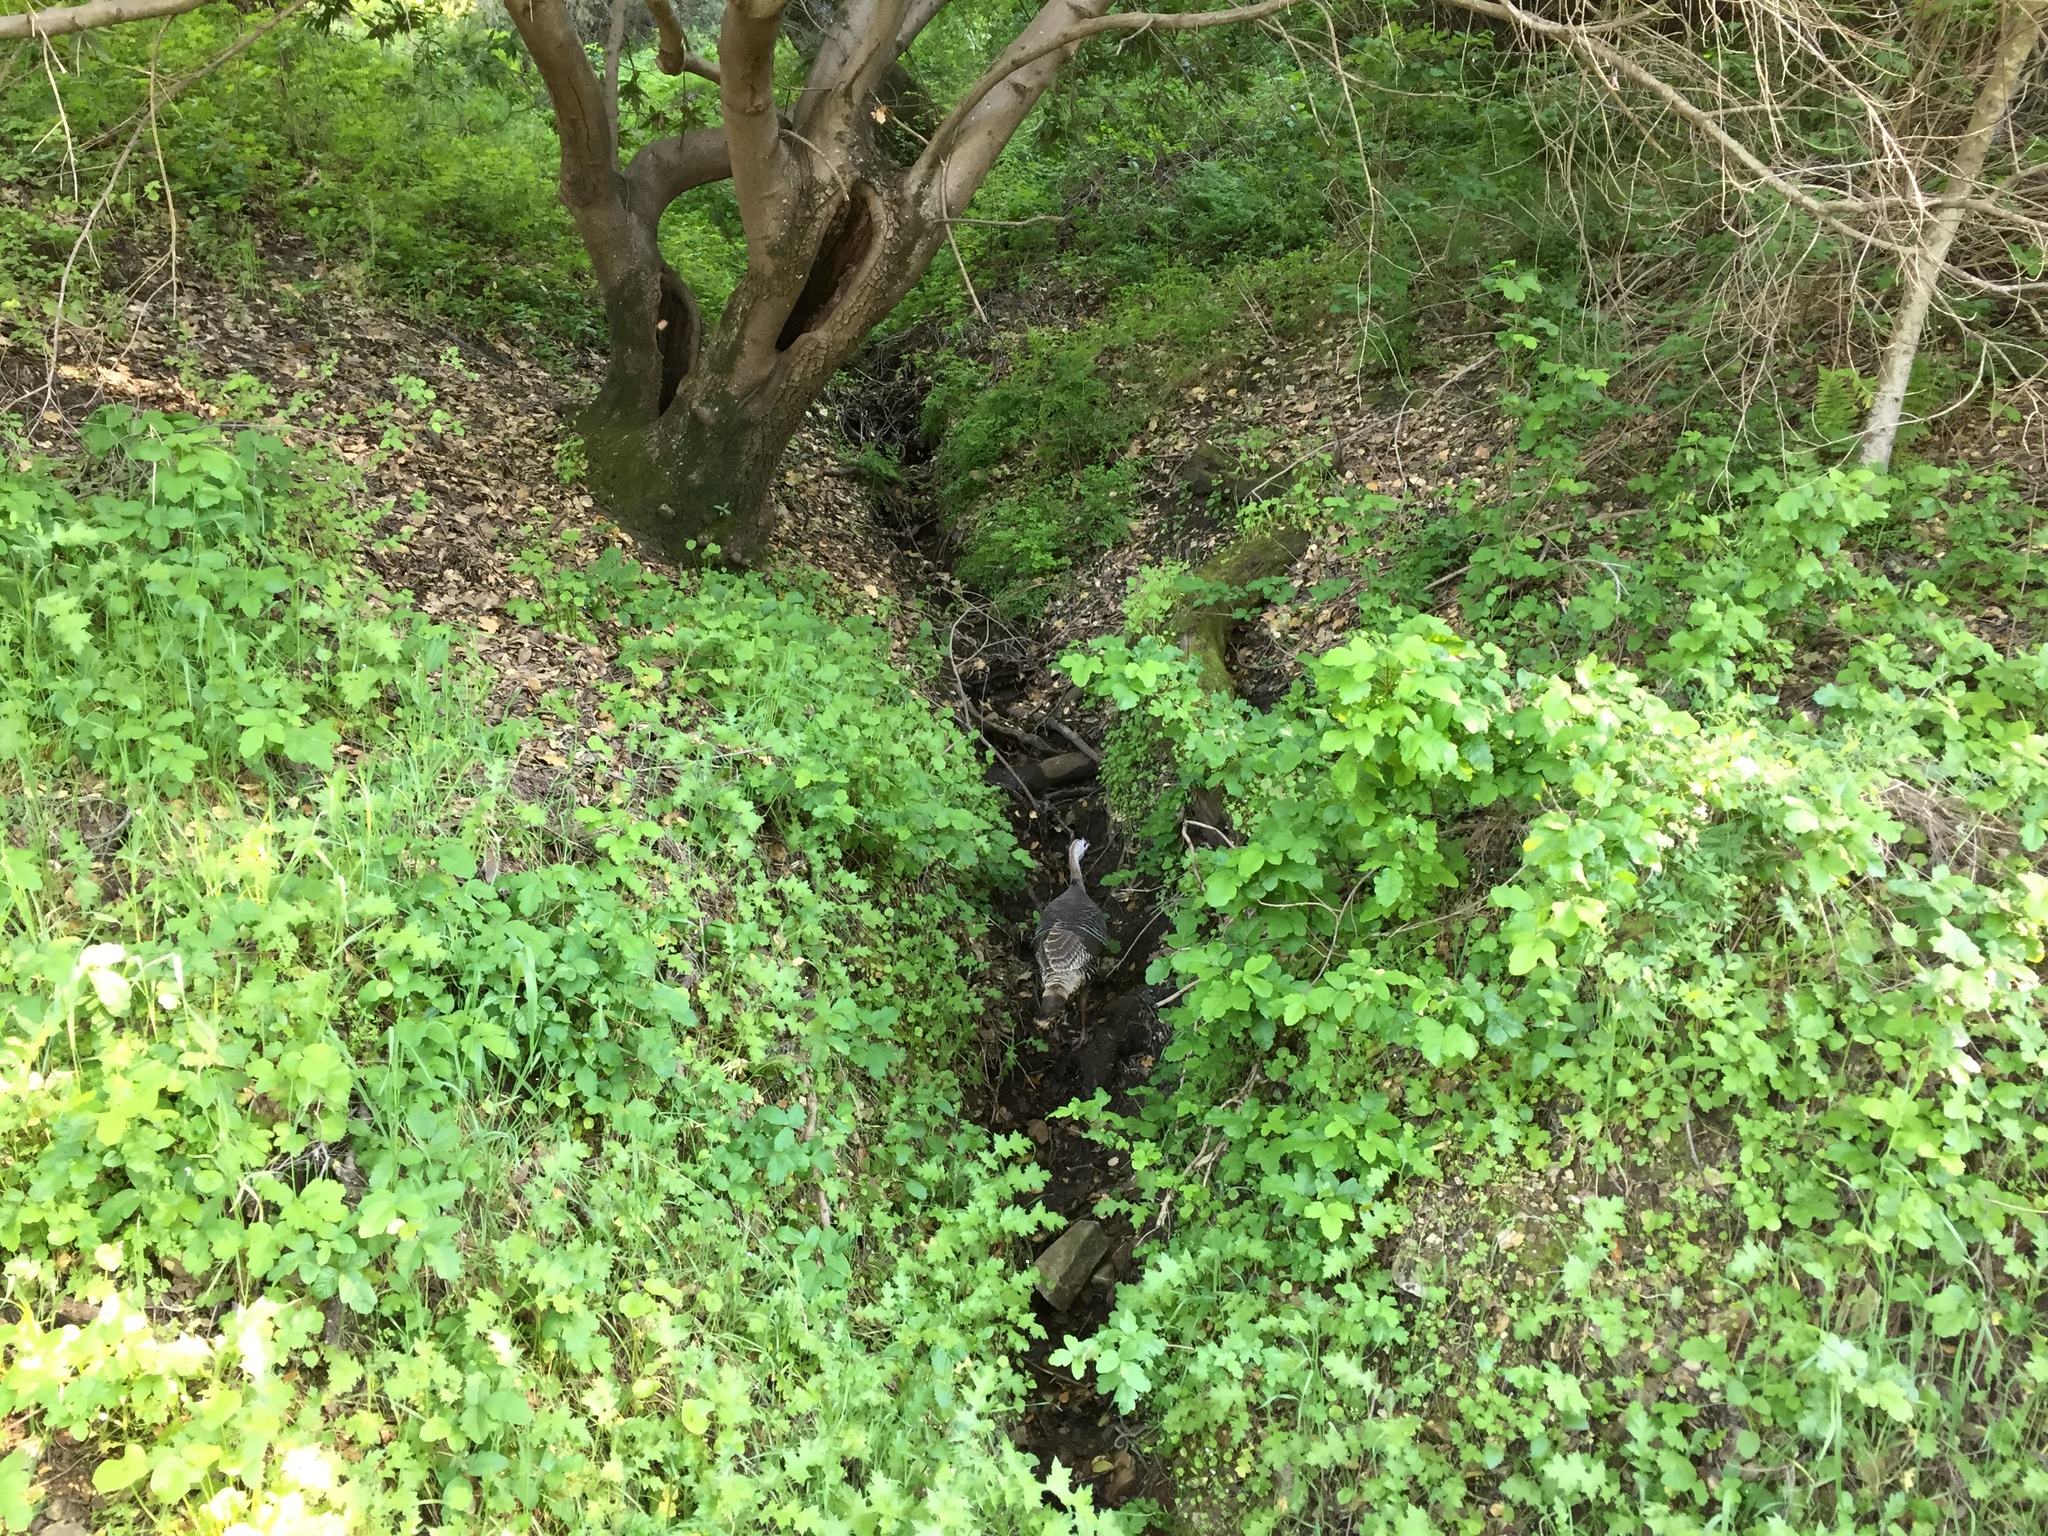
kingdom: Animalia
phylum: Chordata
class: Aves
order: Galliformes
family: Phasianidae
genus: Meleagris
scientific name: Meleagris gallopavo
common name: Wild turkey
